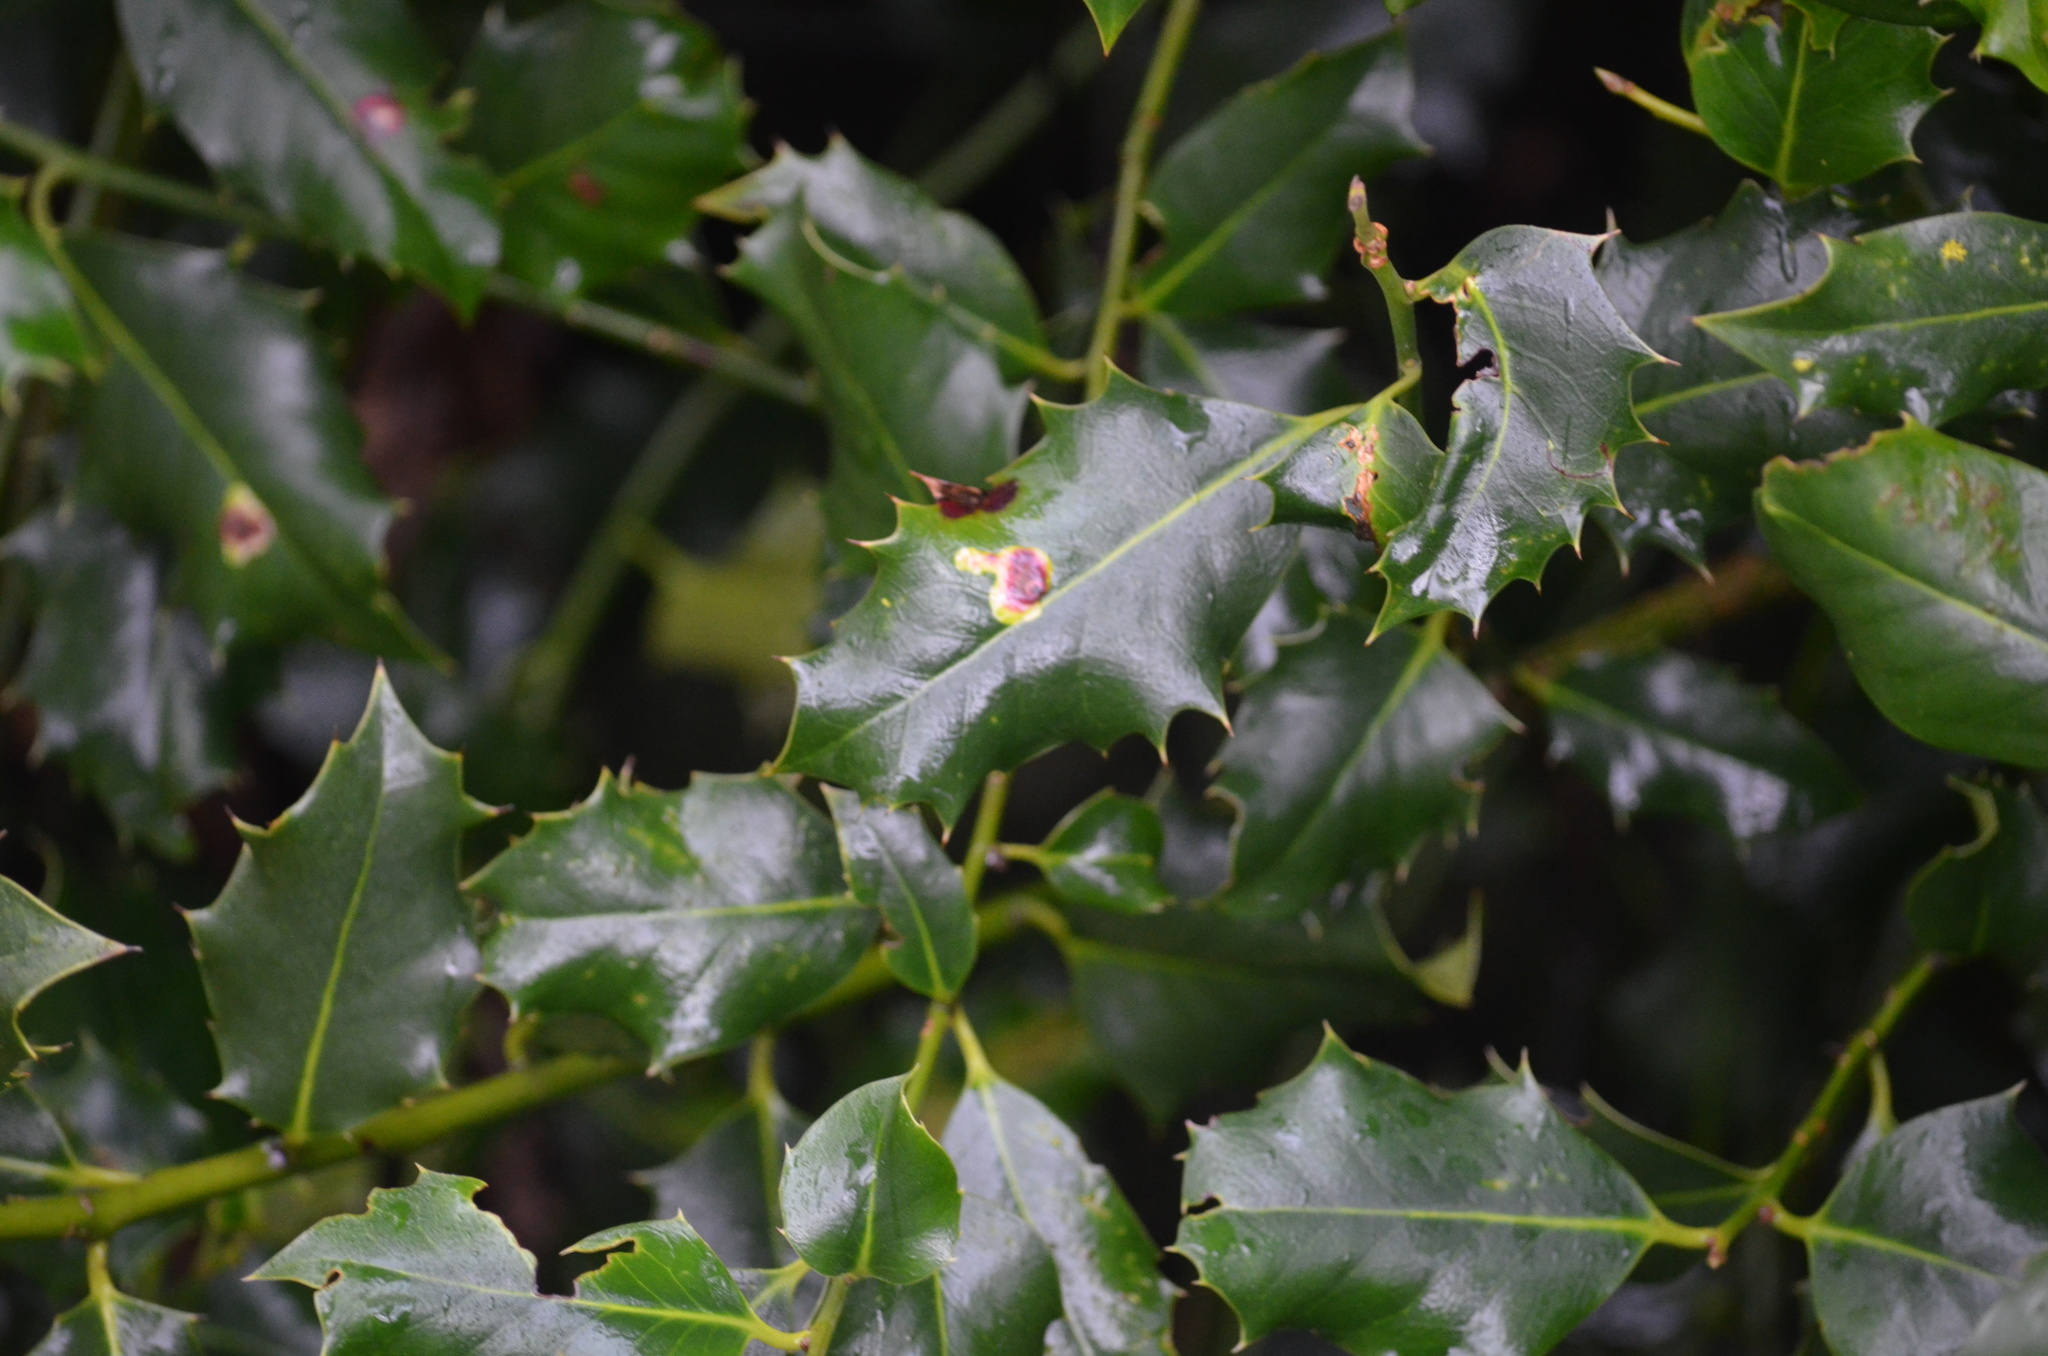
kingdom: Plantae
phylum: Tracheophyta
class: Magnoliopsida
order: Aquifoliales
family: Aquifoliaceae
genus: Ilex
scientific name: Ilex aquifolium
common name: English holly
